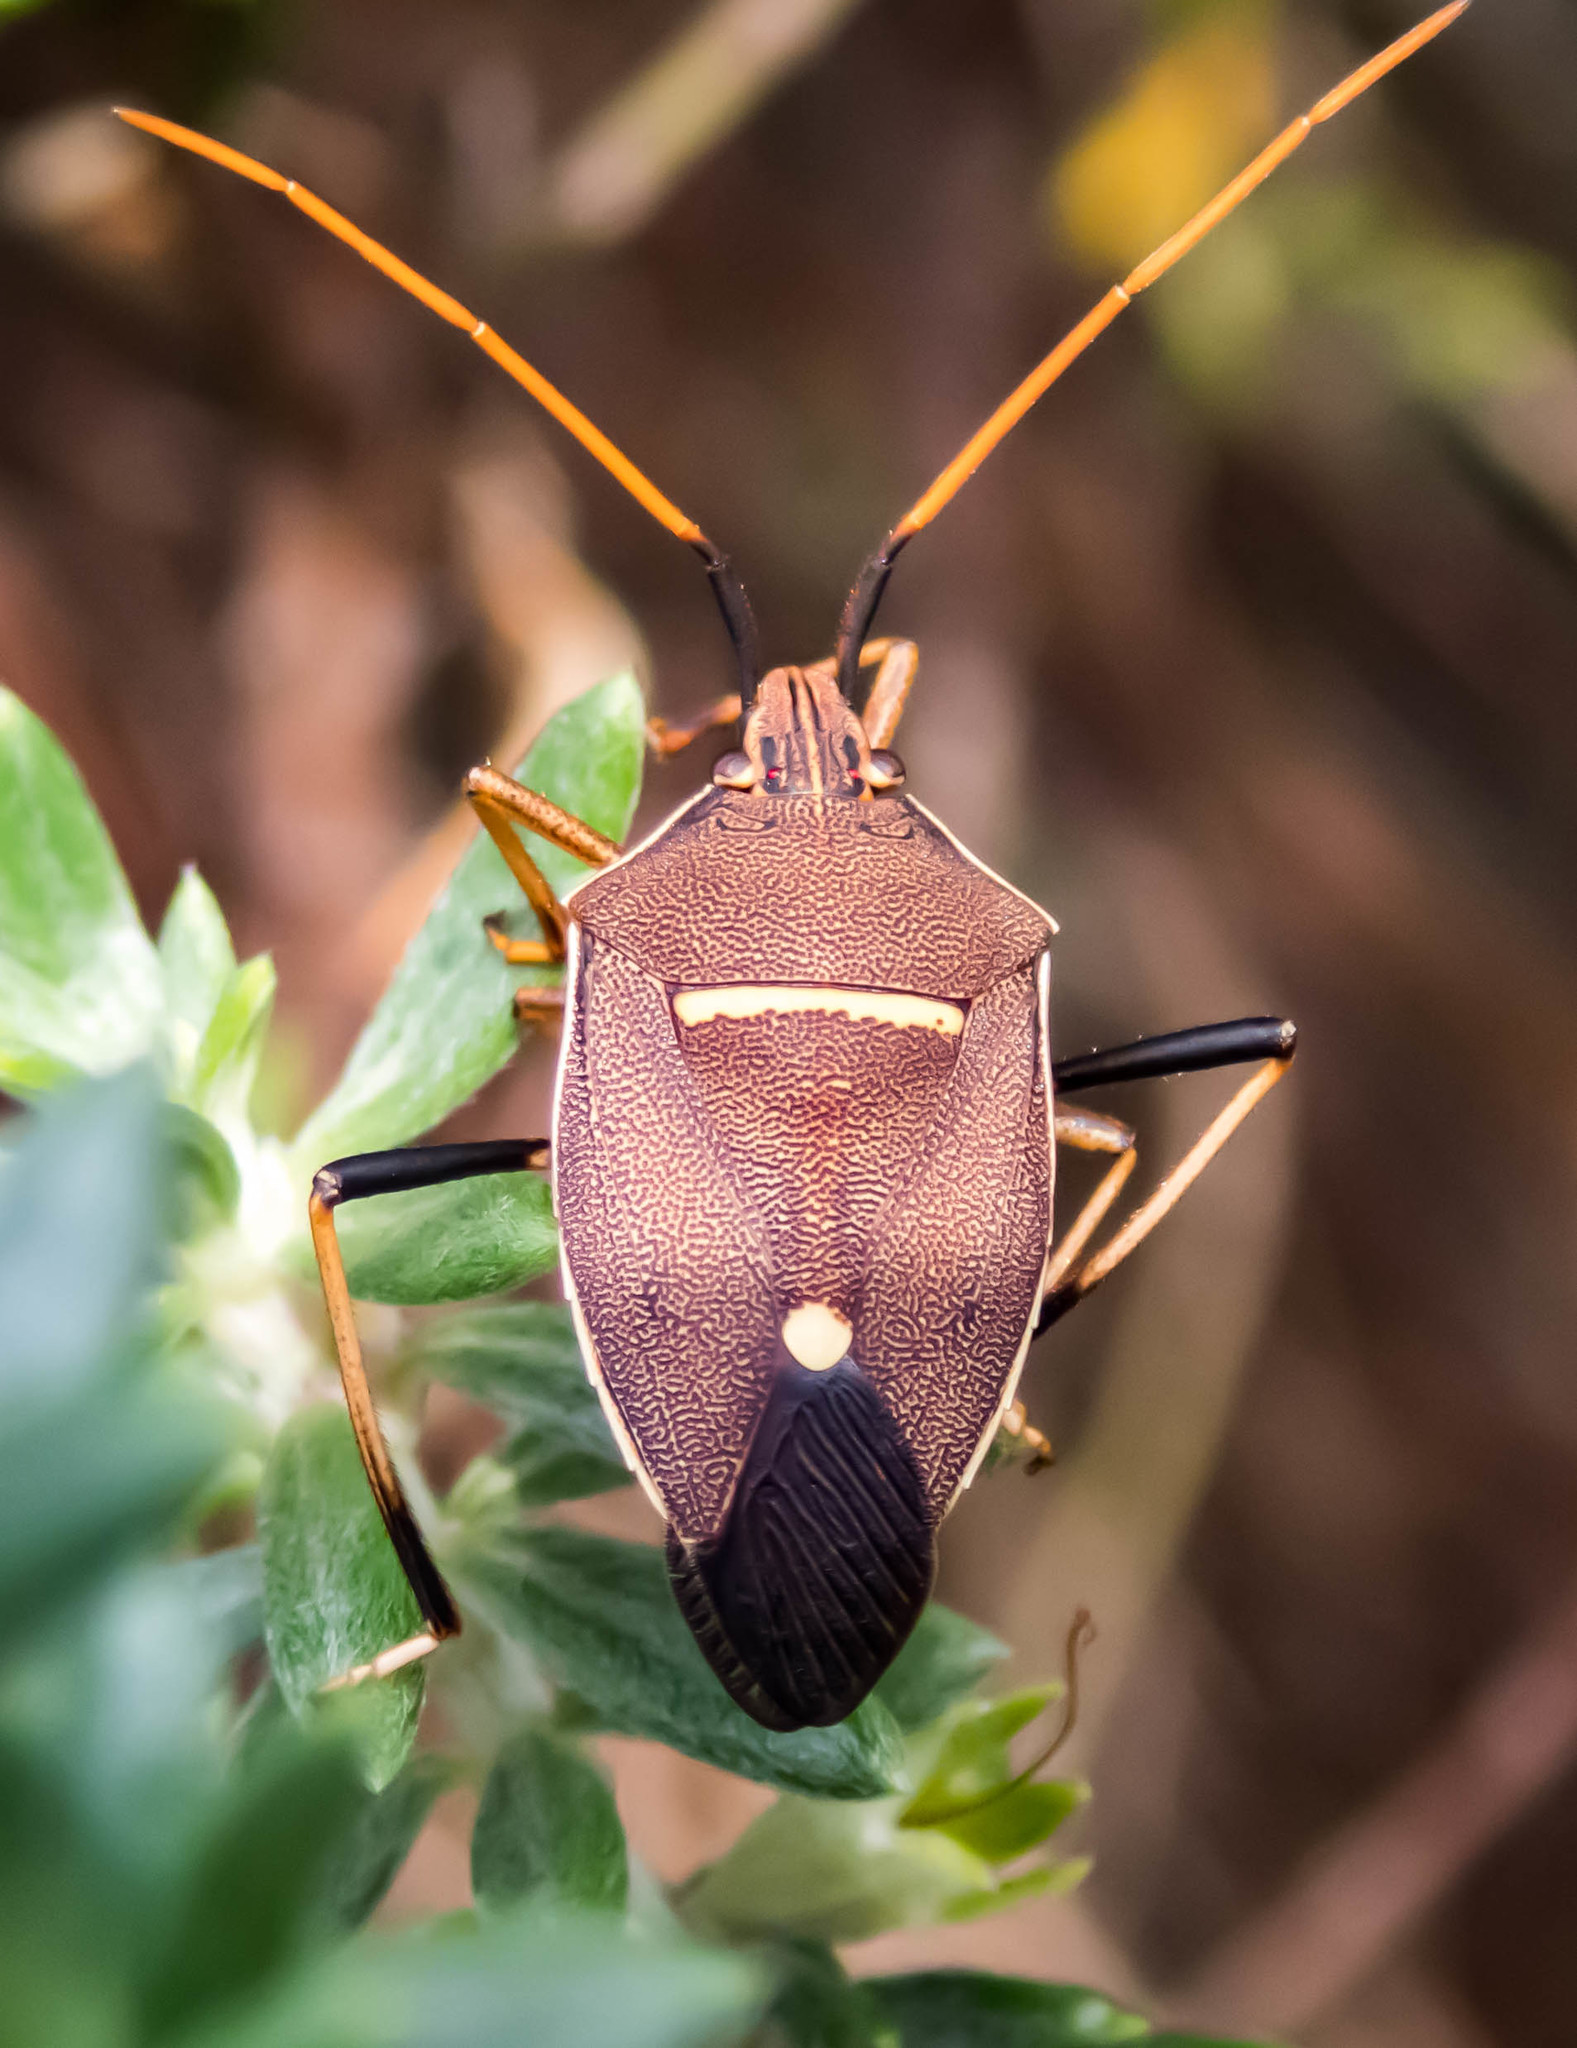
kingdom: Animalia
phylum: Arthropoda
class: Insecta
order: Hemiptera
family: Pentatomidae
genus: Poecilometis
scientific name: Poecilometis
